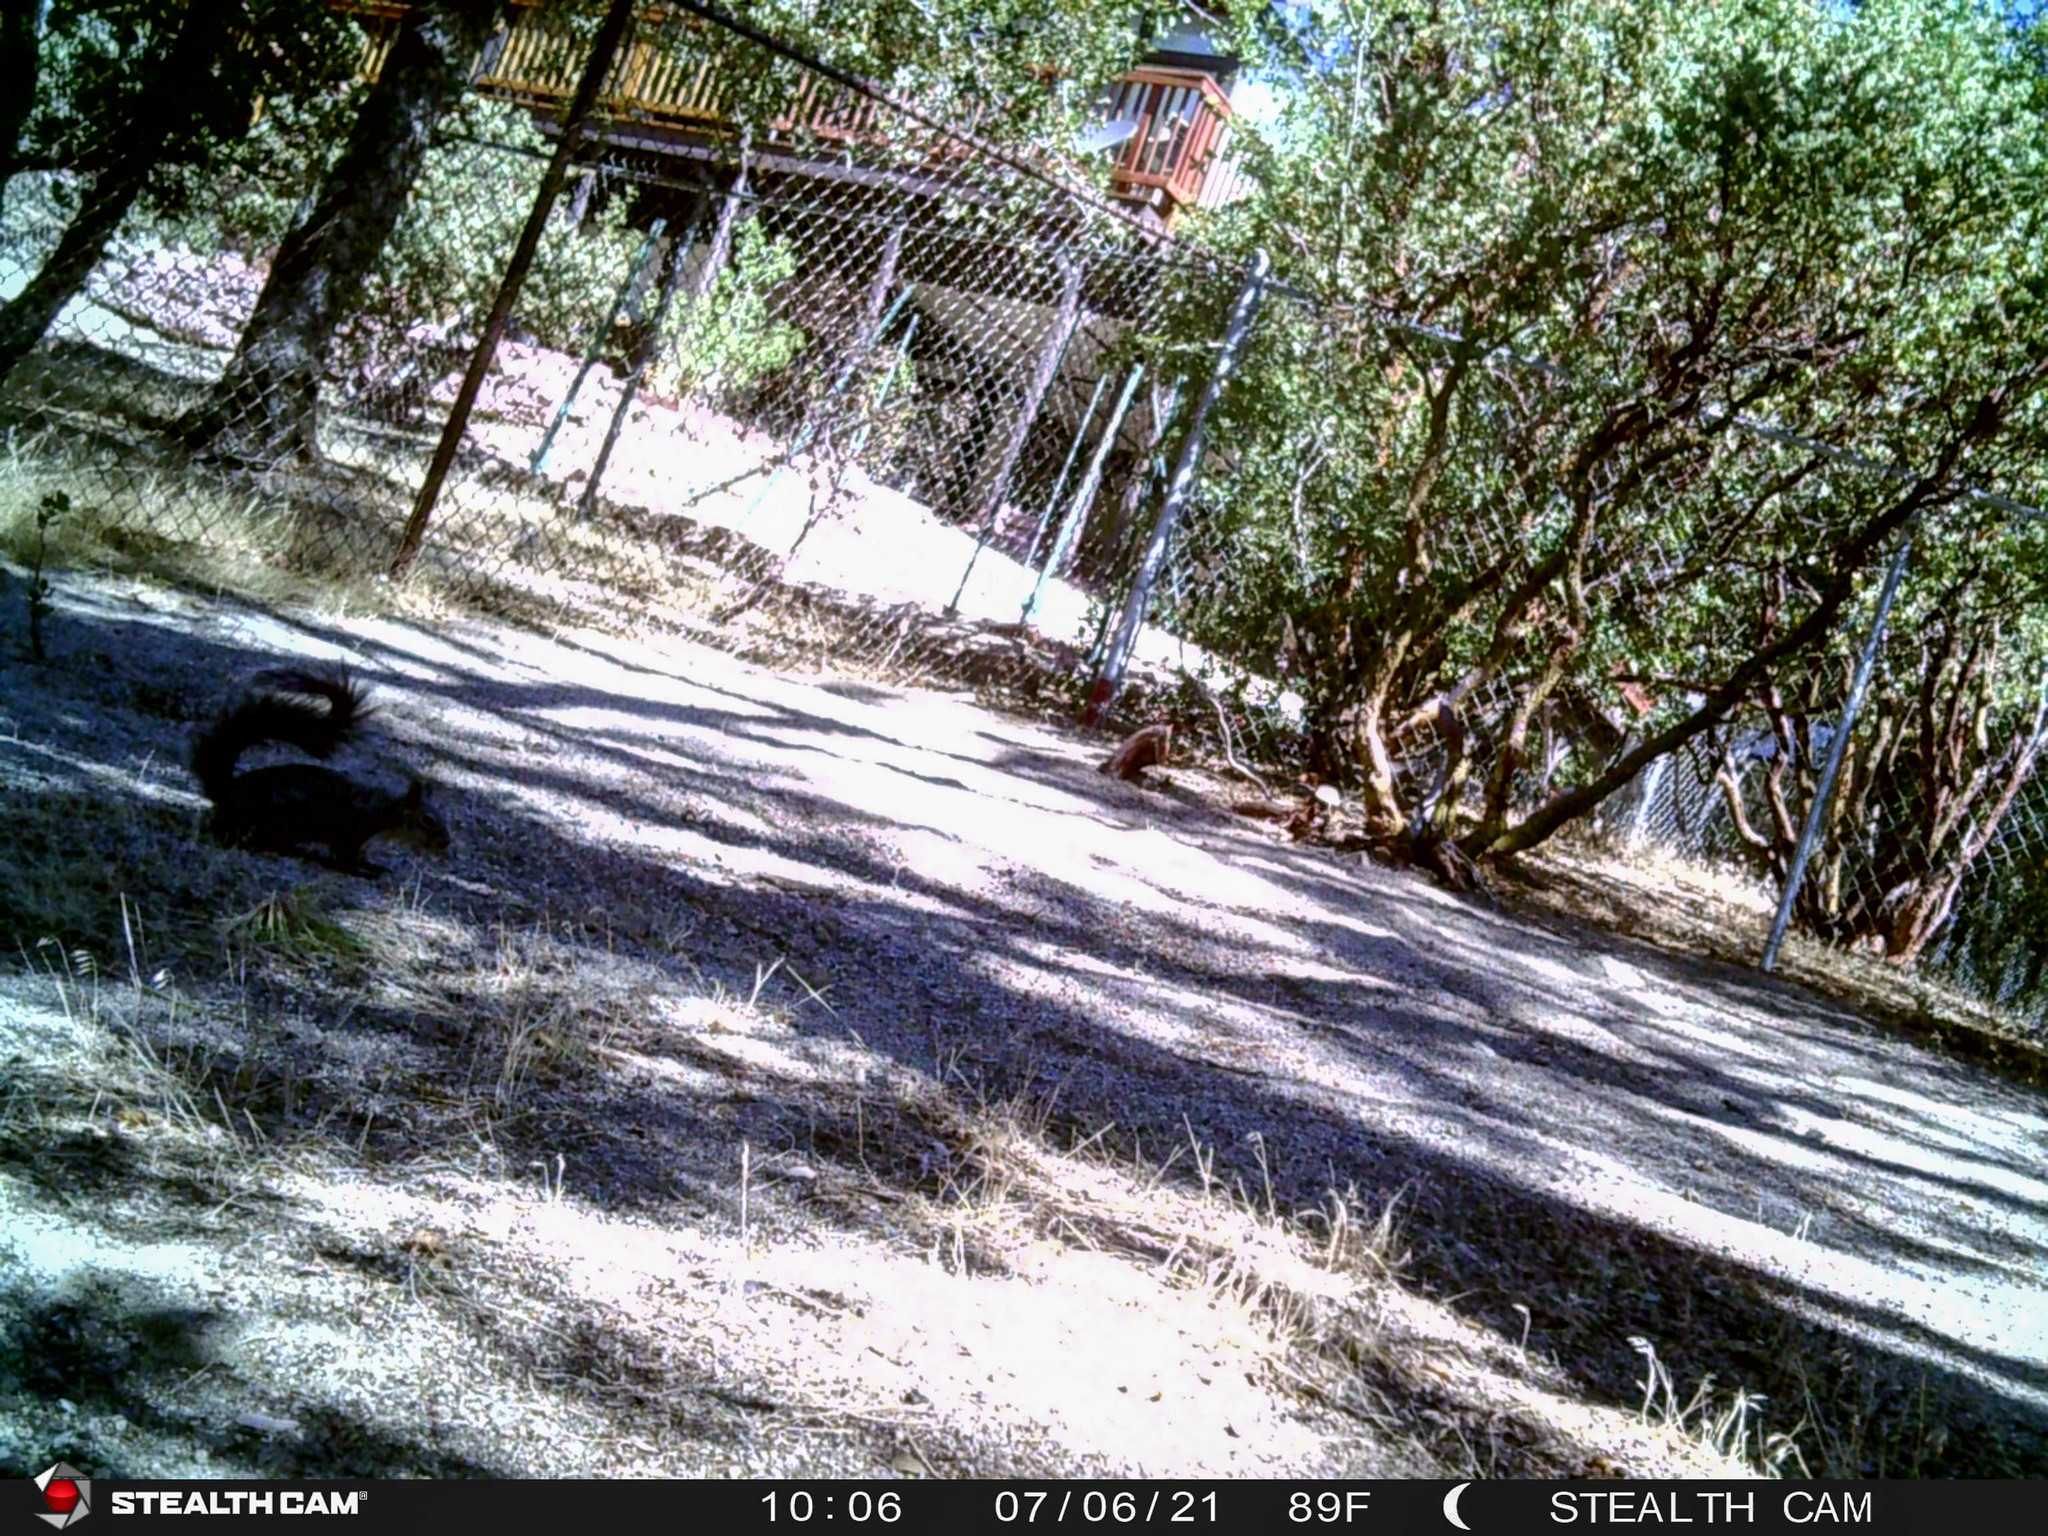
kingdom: Animalia
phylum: Chordata
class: Mammalia
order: Rodentia
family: Sciuridae
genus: Sciurus
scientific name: Sciurus griseus
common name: Western gray squirrel
